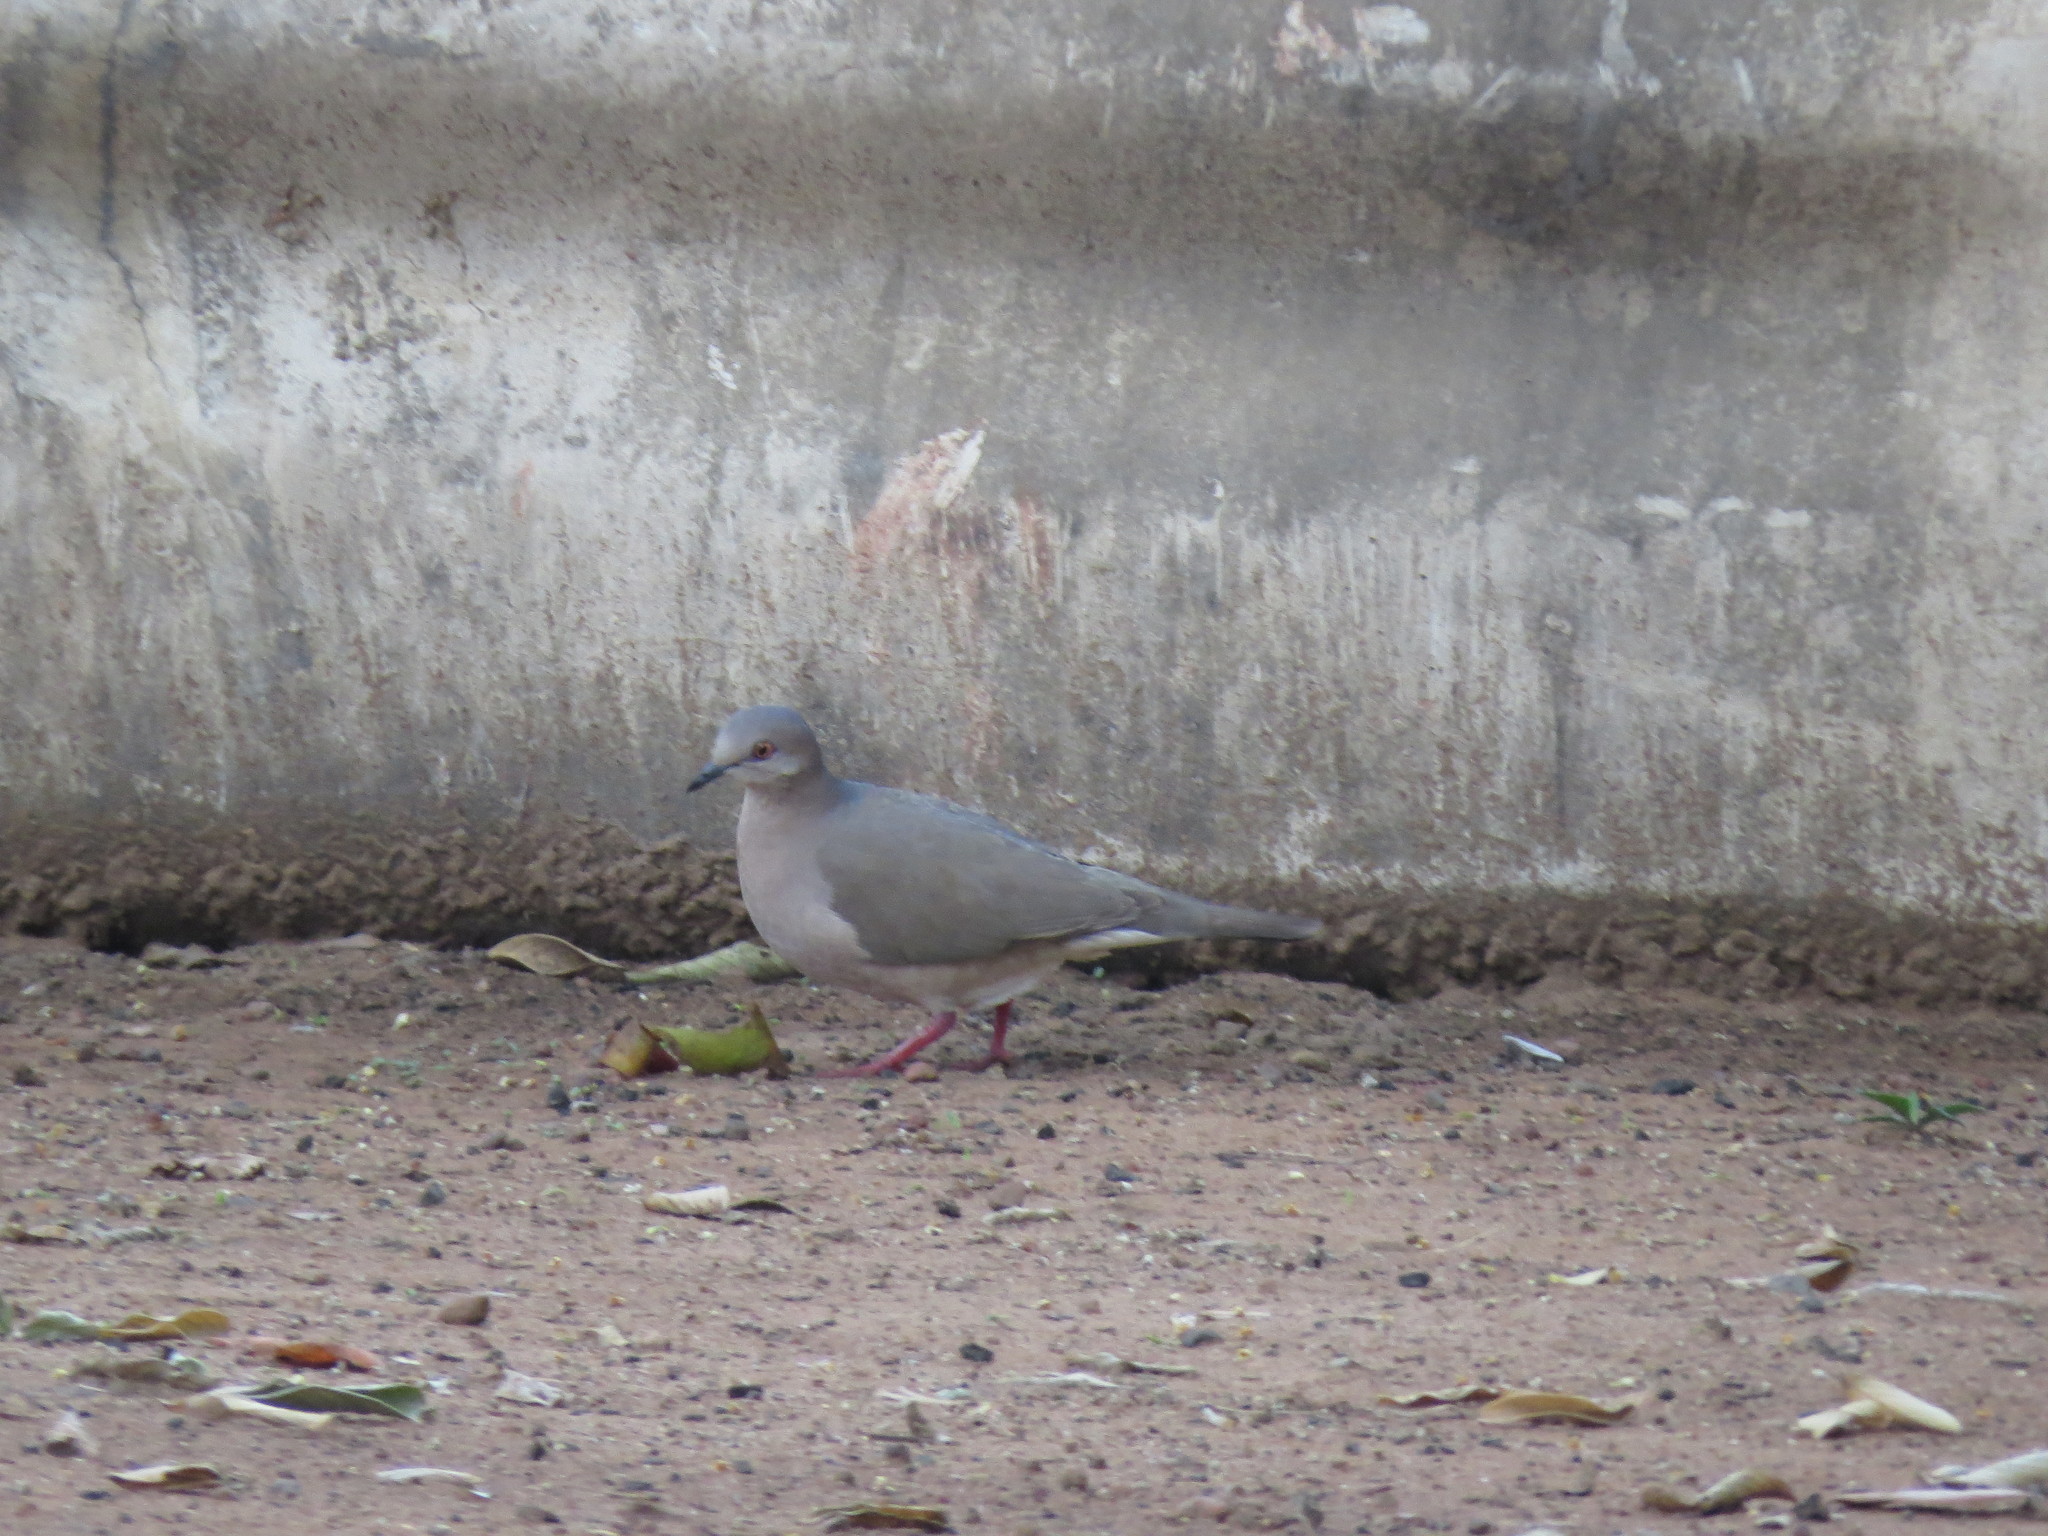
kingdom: Animalia
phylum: Chordata
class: Aves
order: Columbiformes
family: Columbidae
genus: Leptotila
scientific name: Leptotila verreauxi
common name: White-tipped dove
